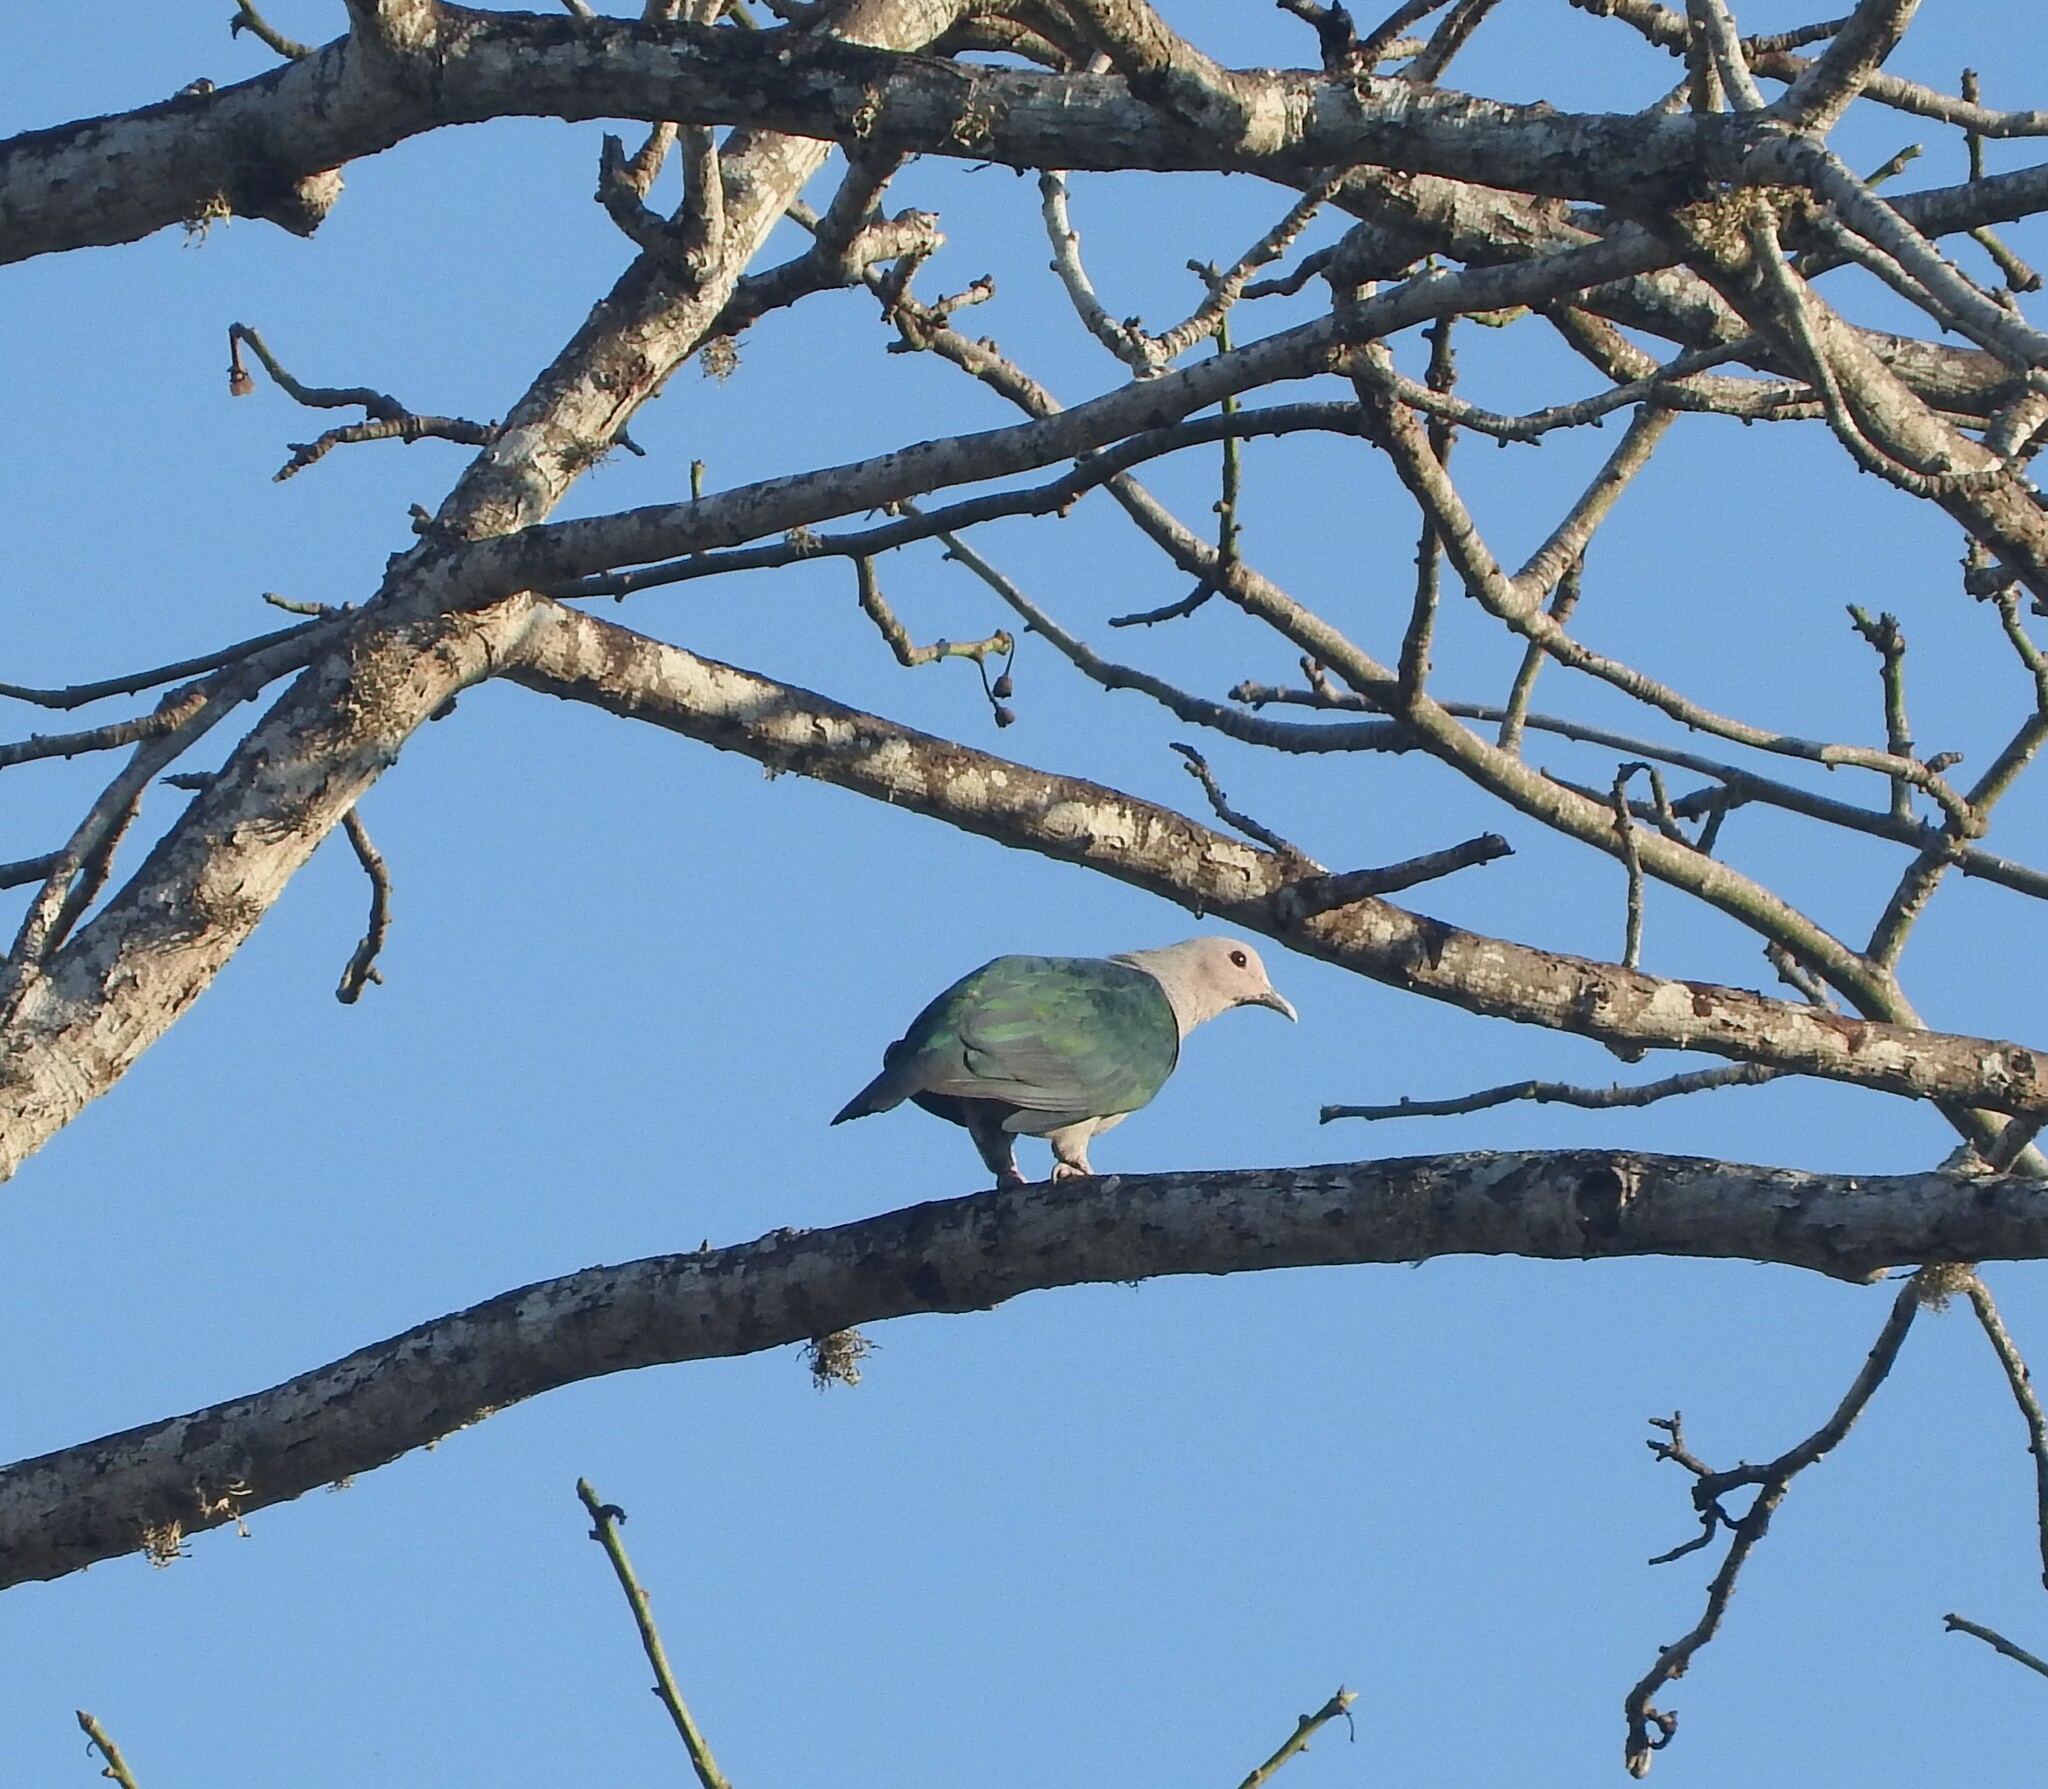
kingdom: Animalia
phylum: Chordata
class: Aves
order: Columbiformes
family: Columbidae
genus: Ducula
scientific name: Ducula aenea
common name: Green imperial pigeon
